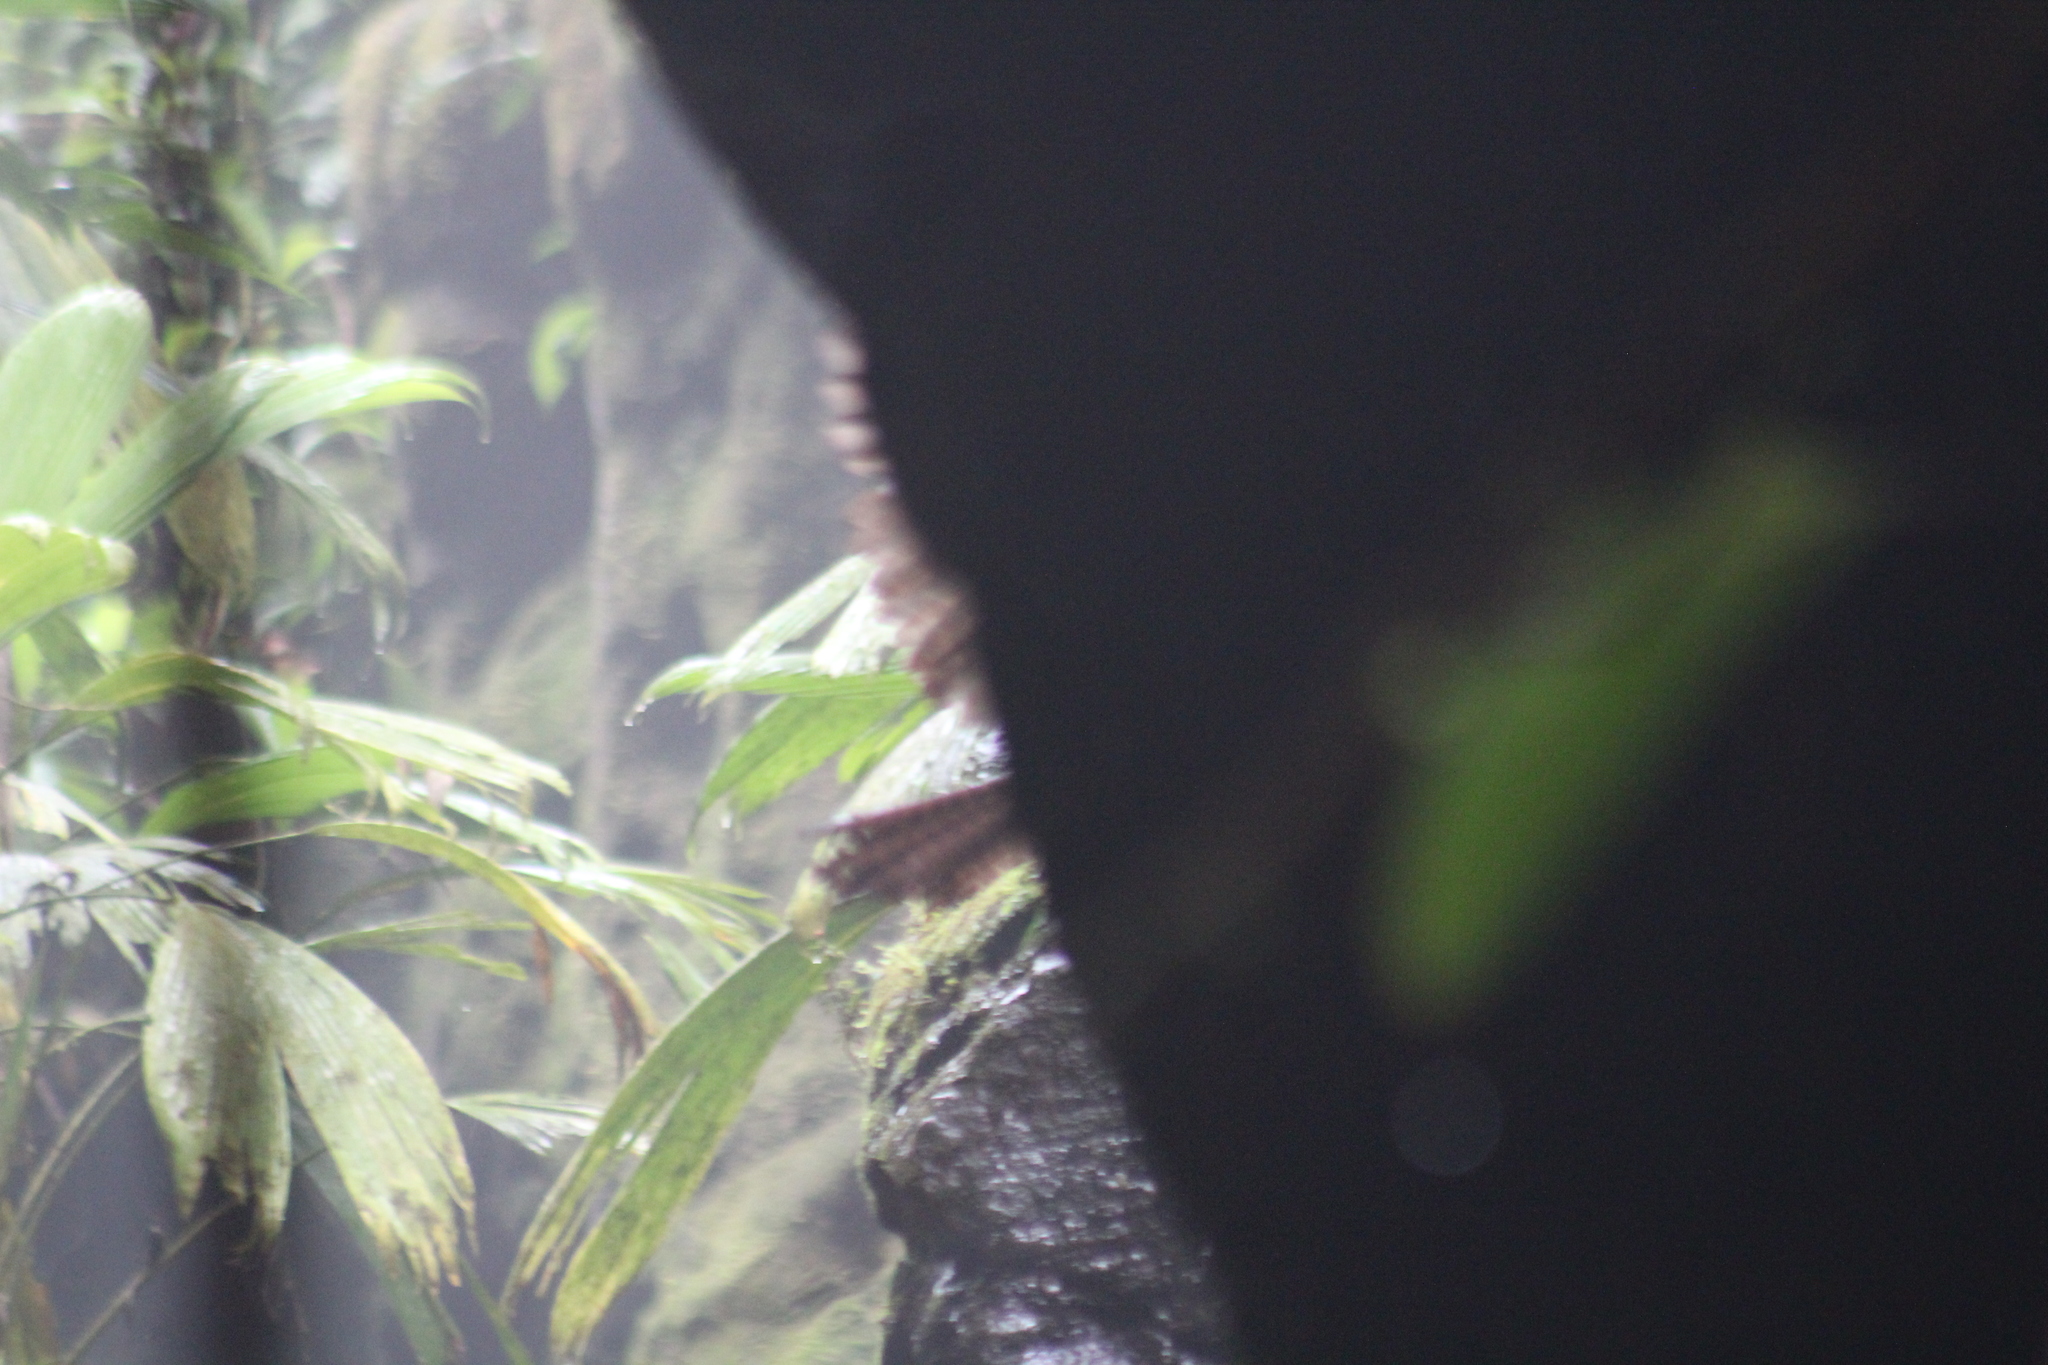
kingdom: Animalia
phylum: Chordata
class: Aves
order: Steatornithiformes
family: Steatornithidae
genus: Steatornis
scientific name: Steatornis caripensis
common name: Oilbird
